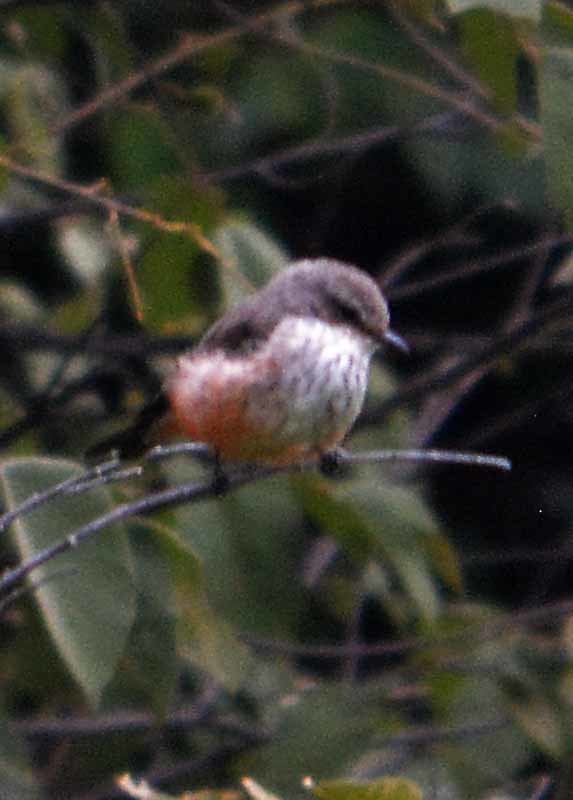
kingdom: Animalia
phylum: Chordata
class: Aves
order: Passeriformes
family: Tyrannidae
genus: Pyrocephalus
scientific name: Pyrocephalus rubinus
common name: Vermilion flycatcher
